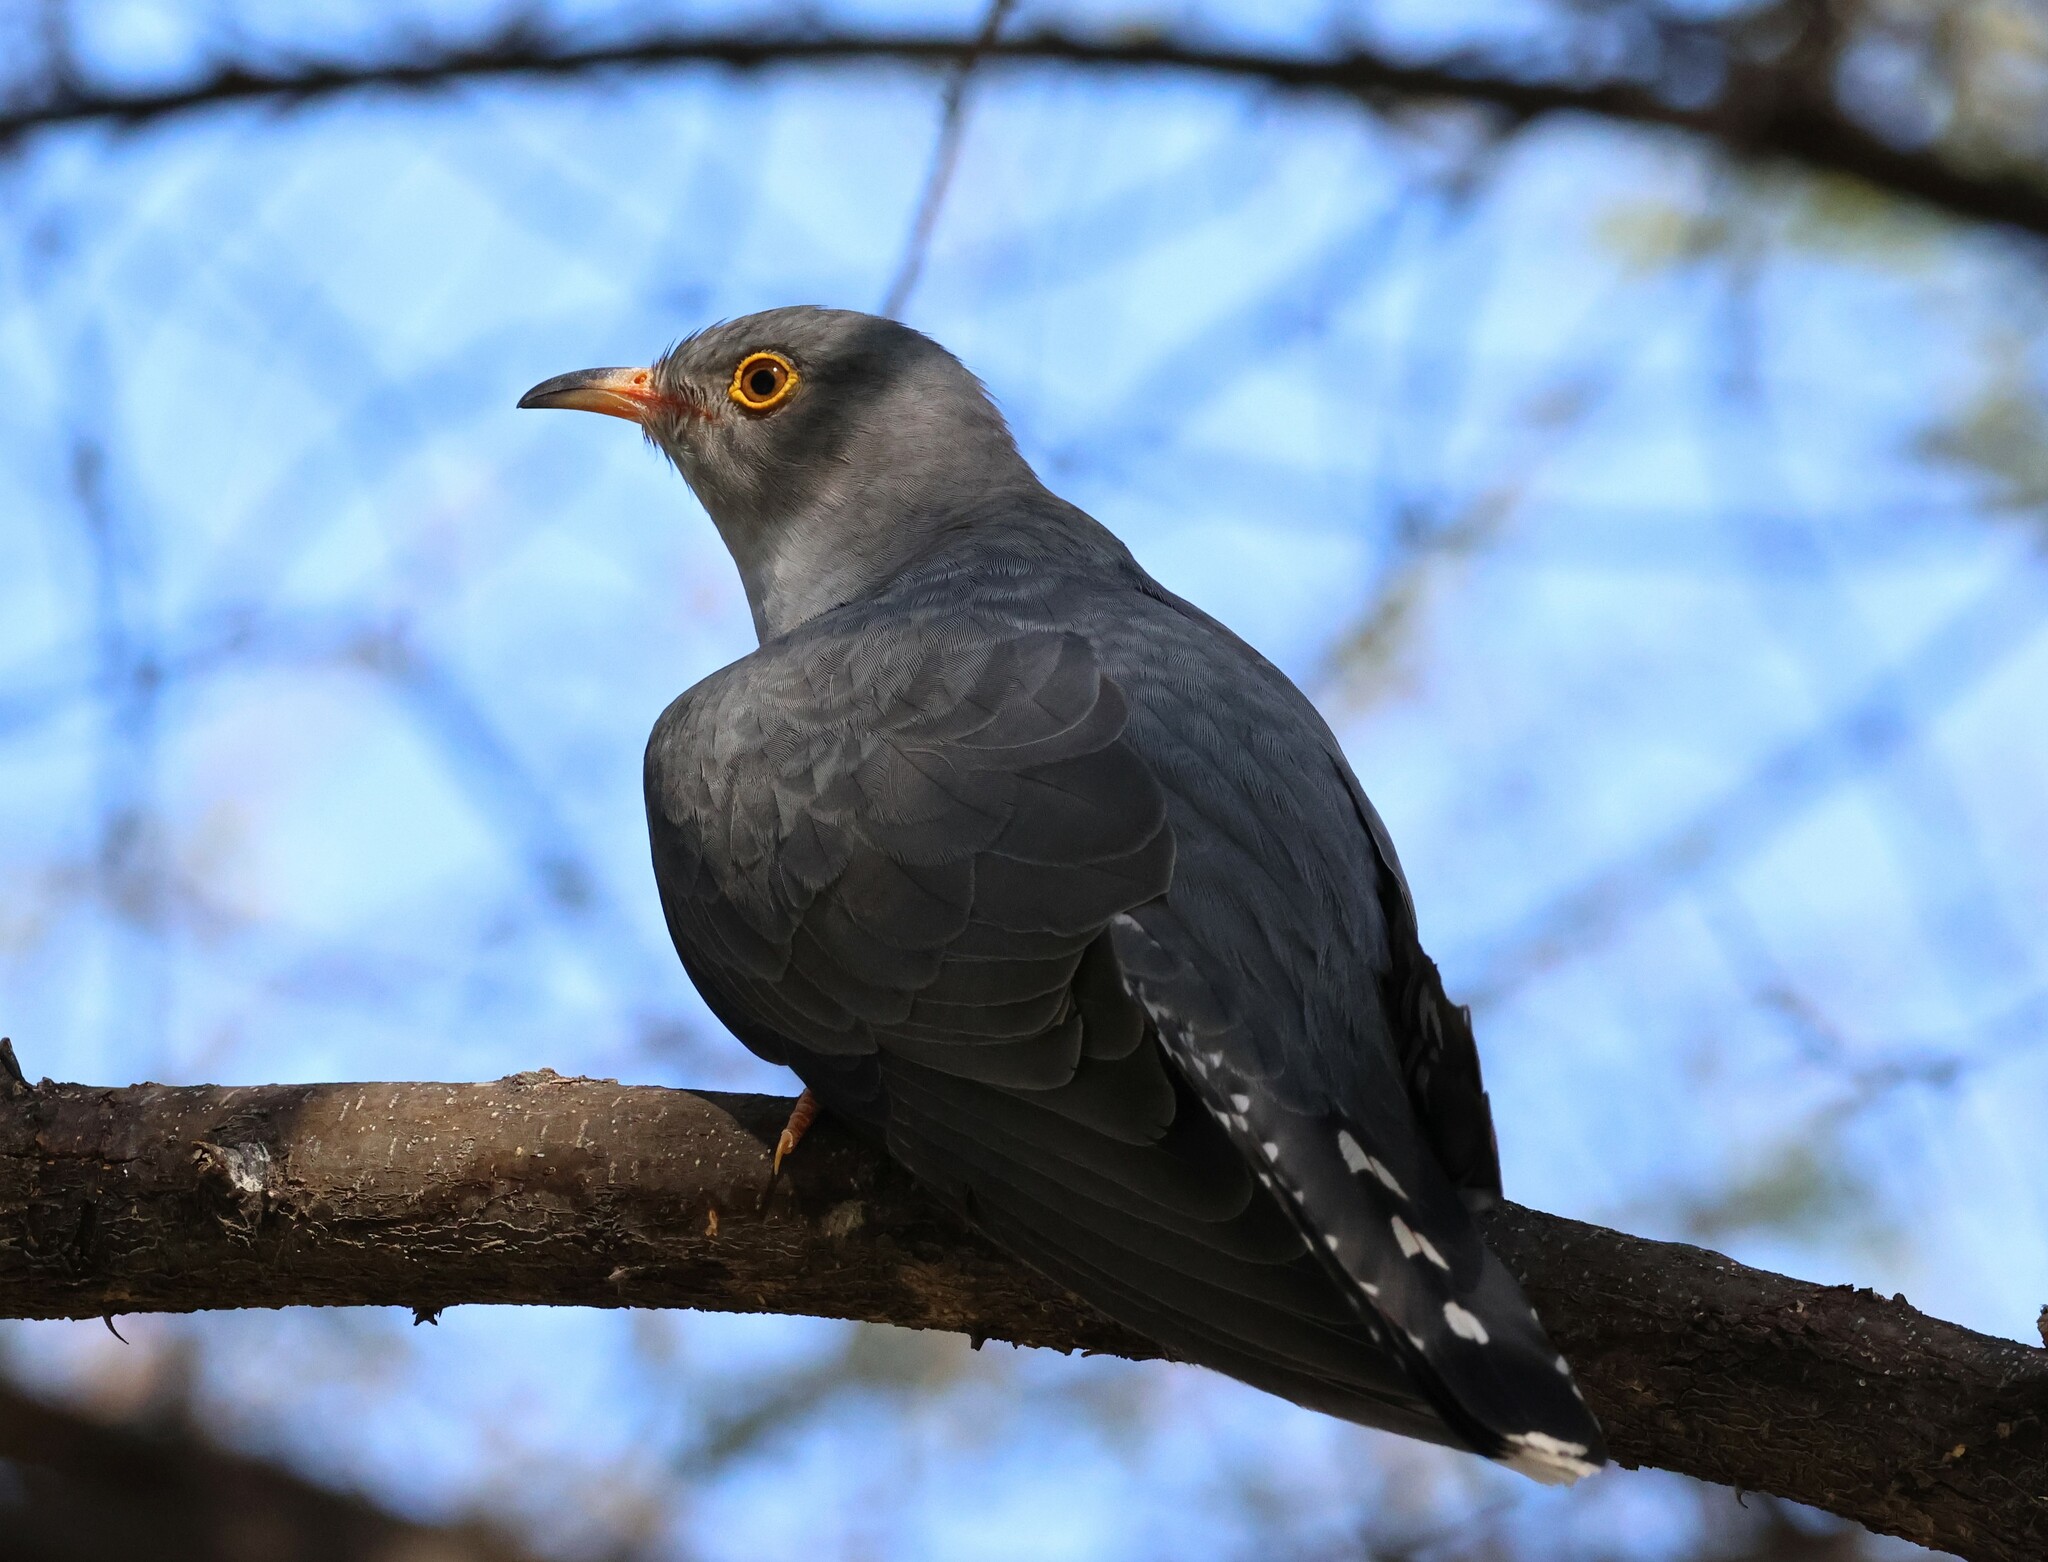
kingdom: Animalia
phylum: Chordata
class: Aves
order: Cuculiformes
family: Cuculidae
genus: Cuculus
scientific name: Cuculus gularis
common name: African cuckoo
